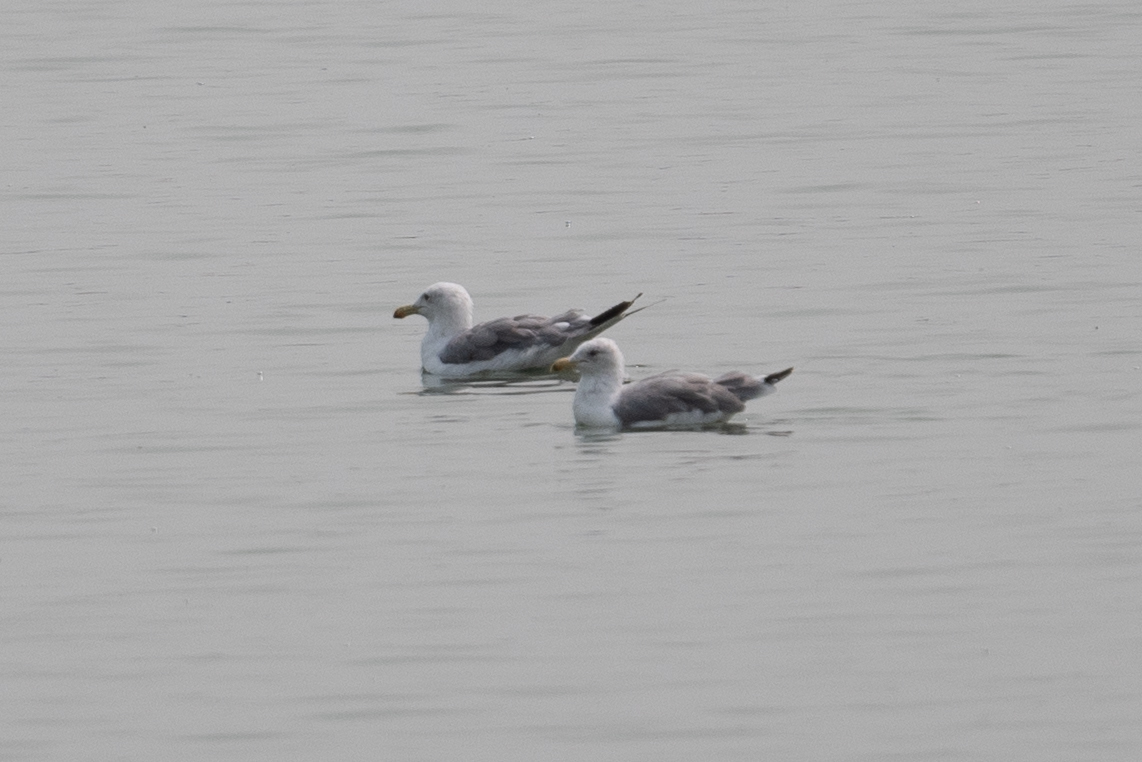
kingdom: Animalia
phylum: Chordata
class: Aves
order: Charadriiformes
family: Laridae
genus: Larus
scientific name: Larus californicus
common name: California gull
